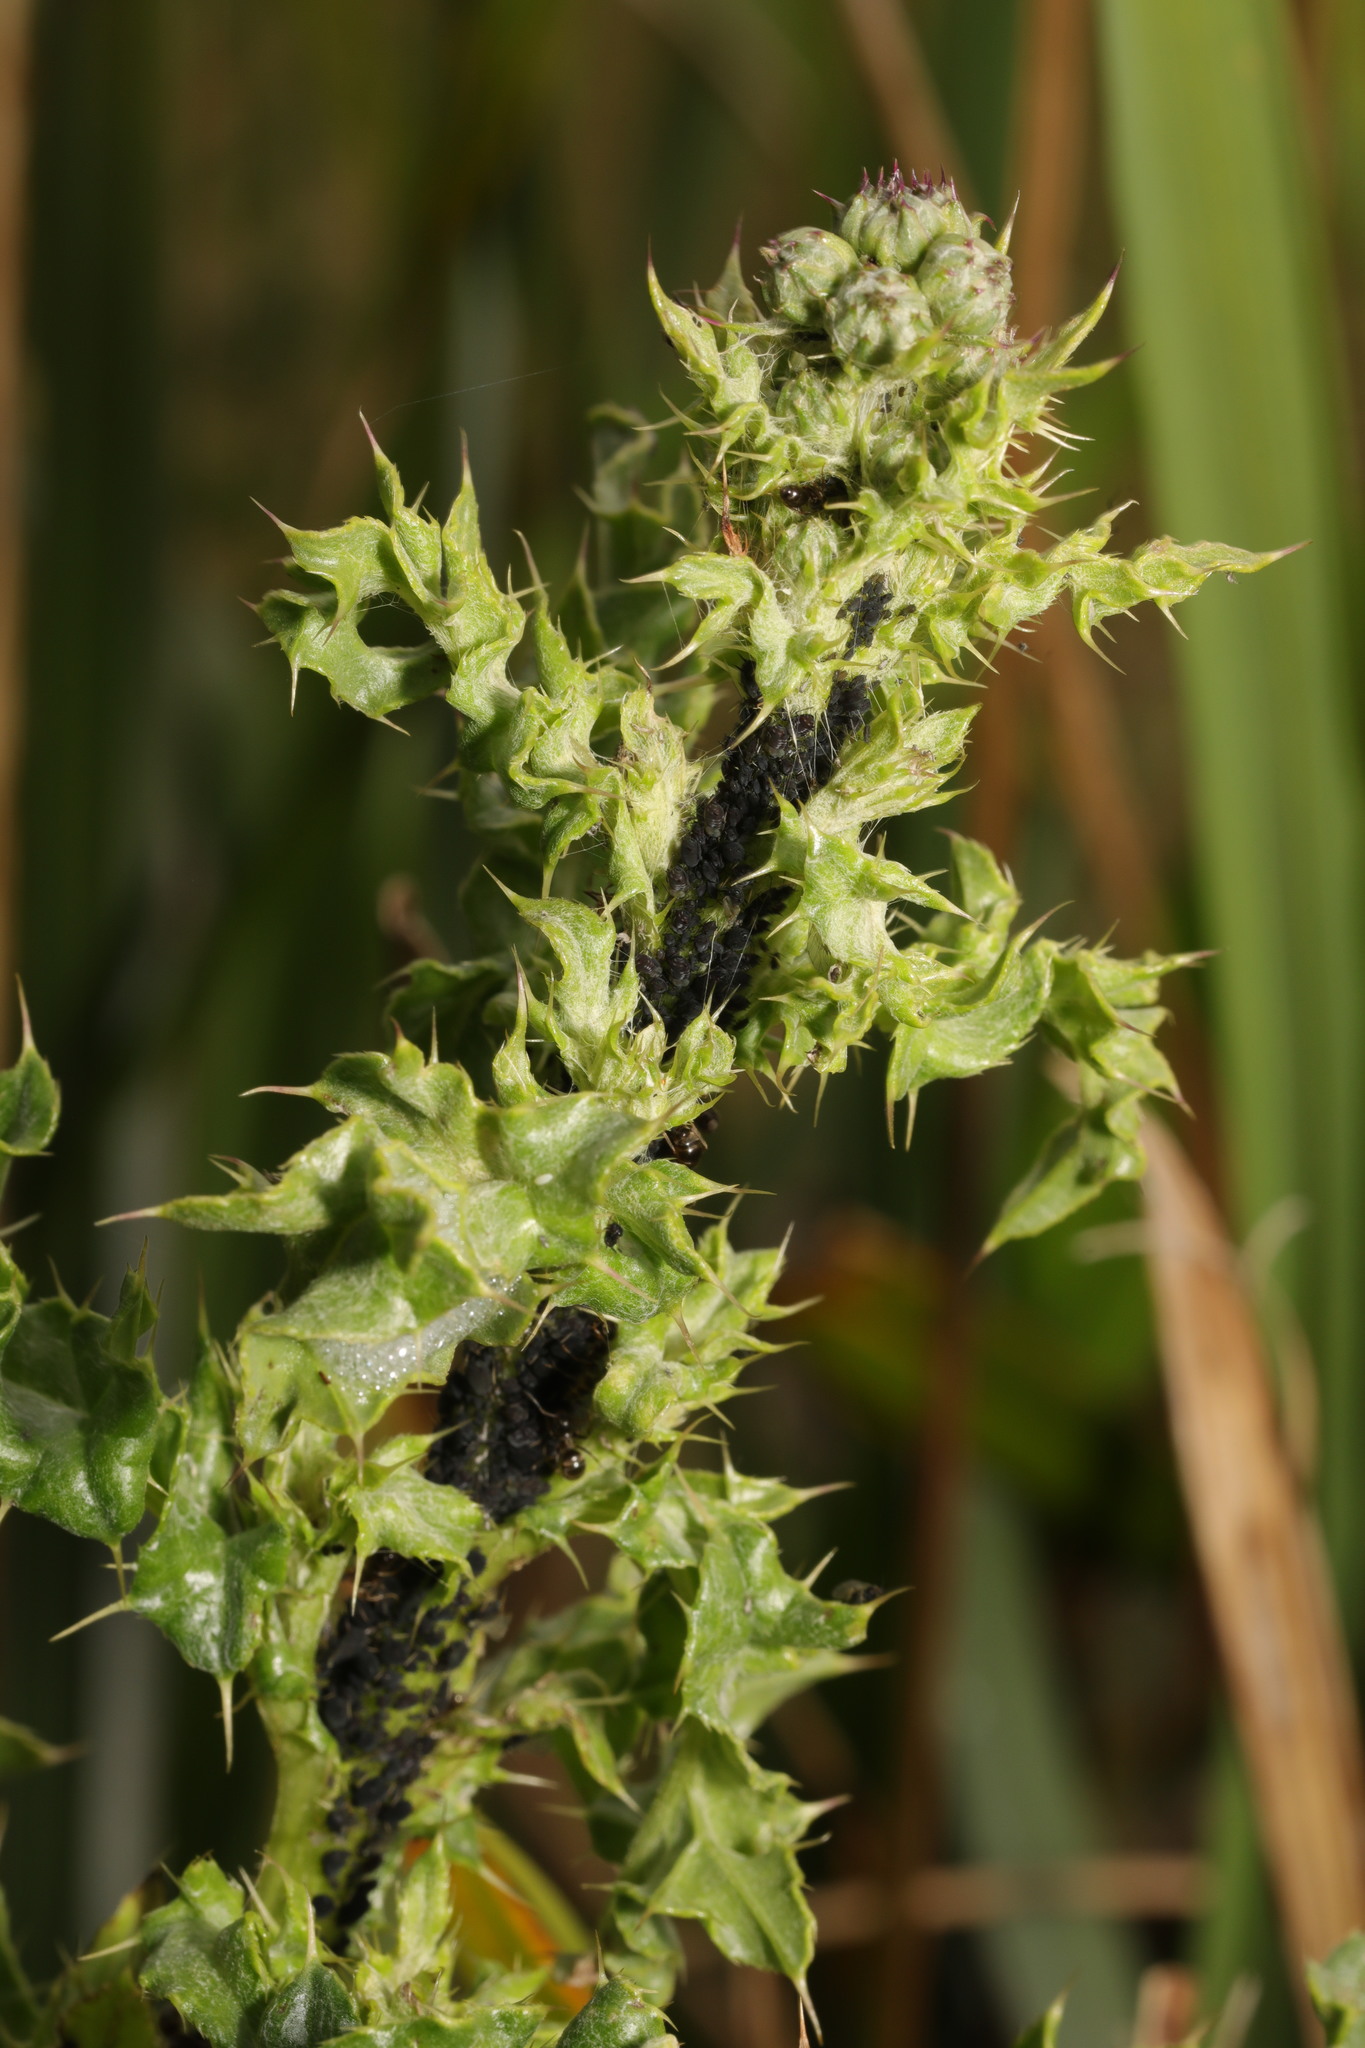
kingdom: Plantae
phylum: Tracheophyta
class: Magnoliopsida
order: Asterales
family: Asteraceae
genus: Cirsium
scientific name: Cirsium arvense
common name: Creeping thistle
